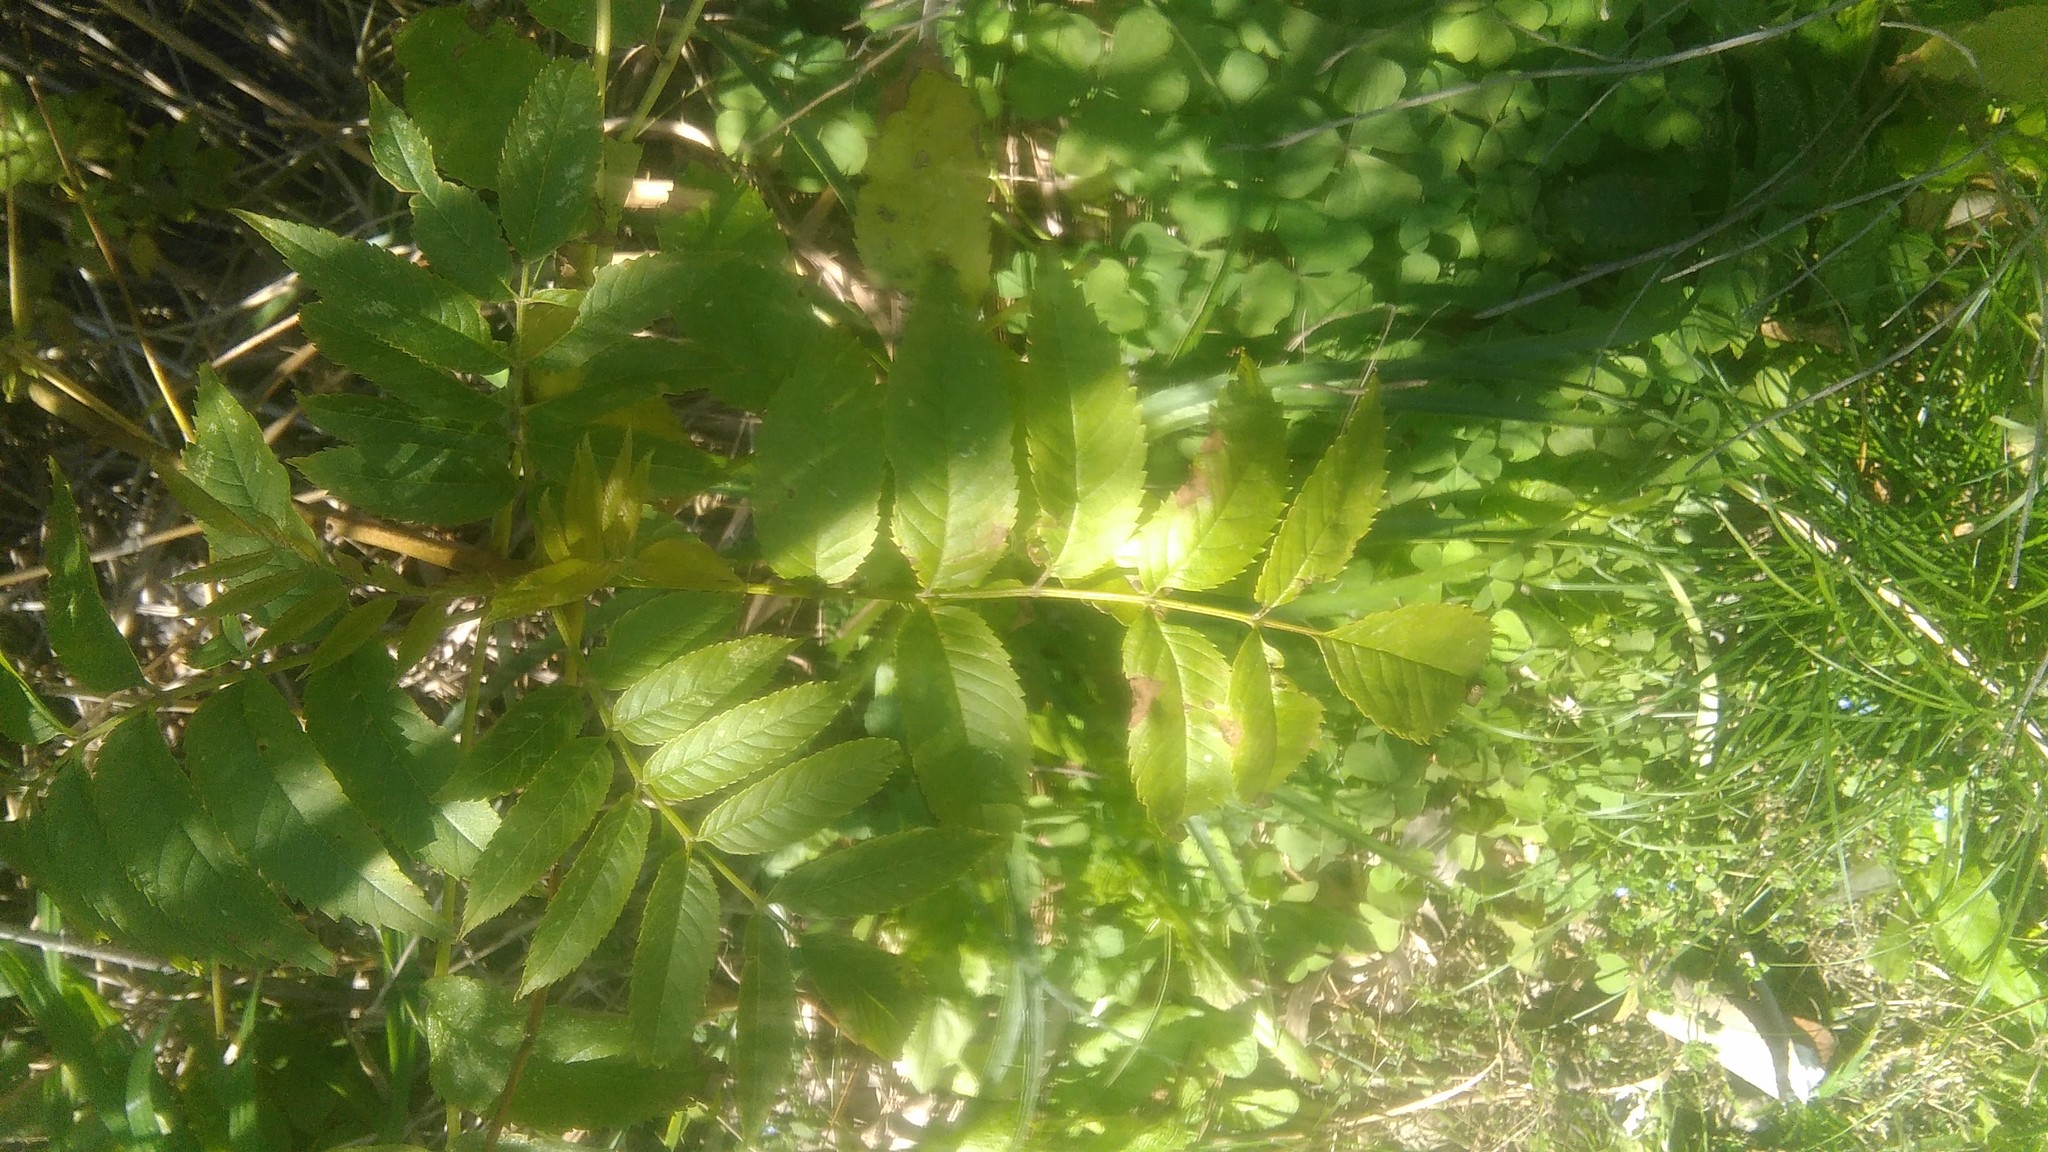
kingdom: Plantae
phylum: Tracheophyta
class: Magnoliopsida
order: Lamiales
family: Bignoniaceae
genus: Tecoma
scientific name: Tecoma stans
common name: Yellow trumpetbush
